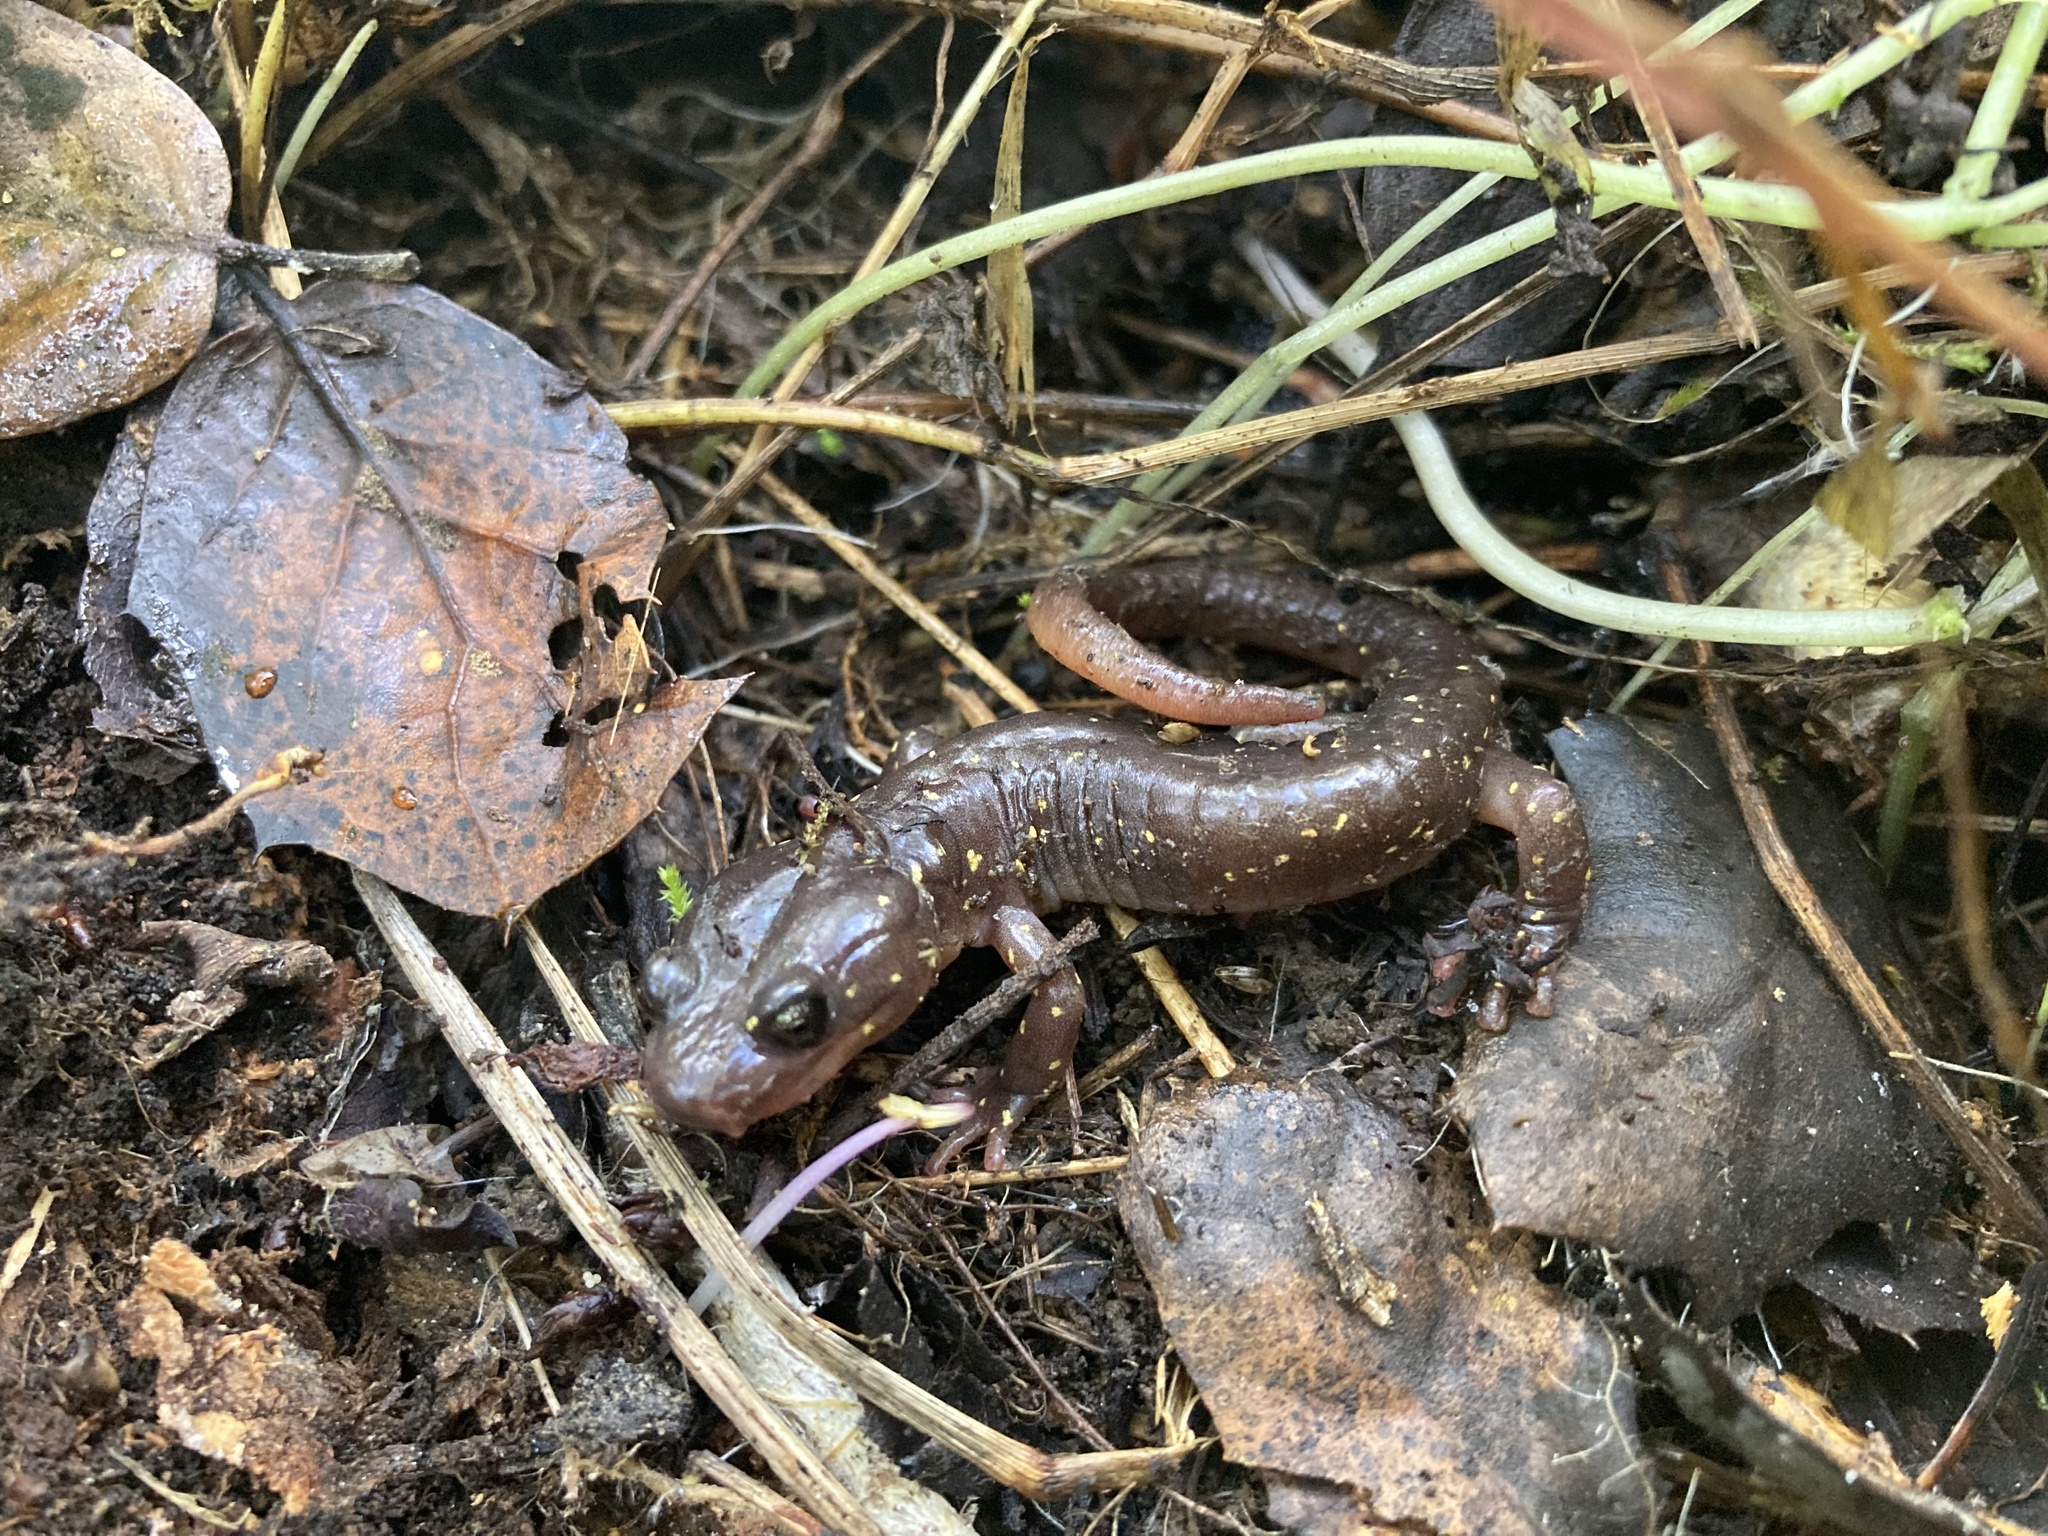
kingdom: Animalia
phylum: Chordata
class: Amphibia
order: Caudata
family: Plethodontidae
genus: Aneides
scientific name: Aneides lugubris
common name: Arboreal salamander
